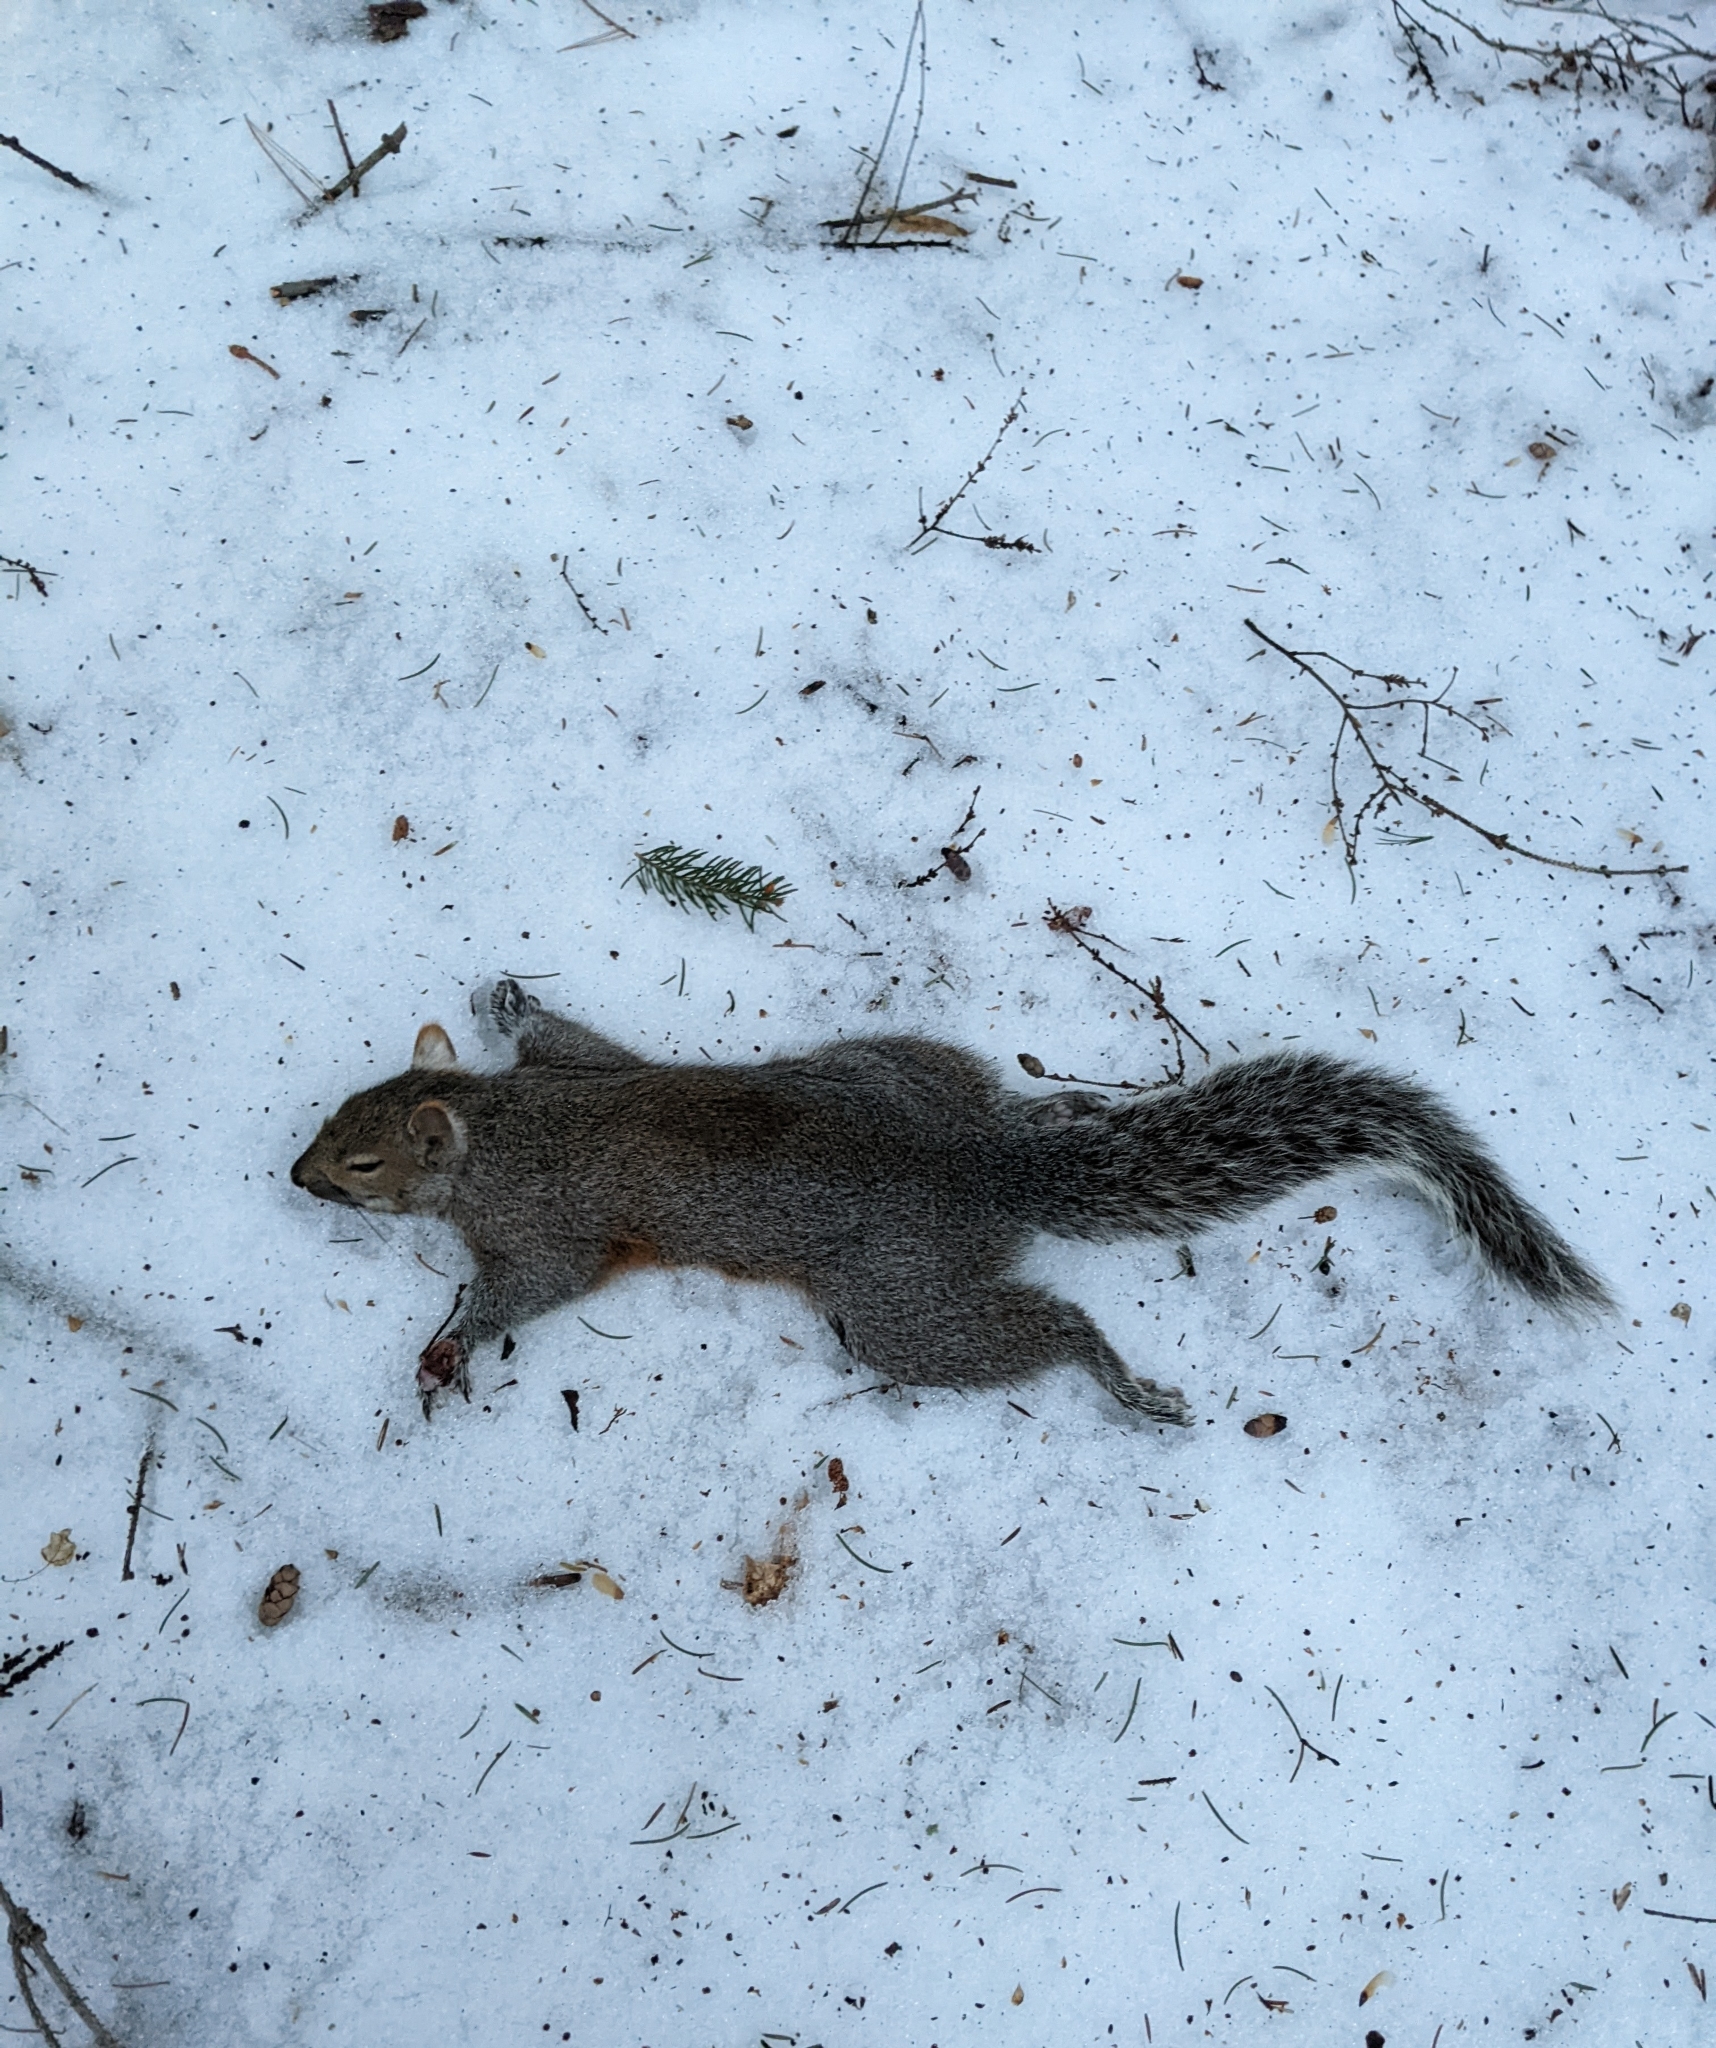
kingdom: Animalia
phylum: Chordata
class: Mammalia
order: Rodentia
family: Sciuridae
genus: Sciurus
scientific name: Sciurus carolinensis
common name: Eastern gray squirrel
